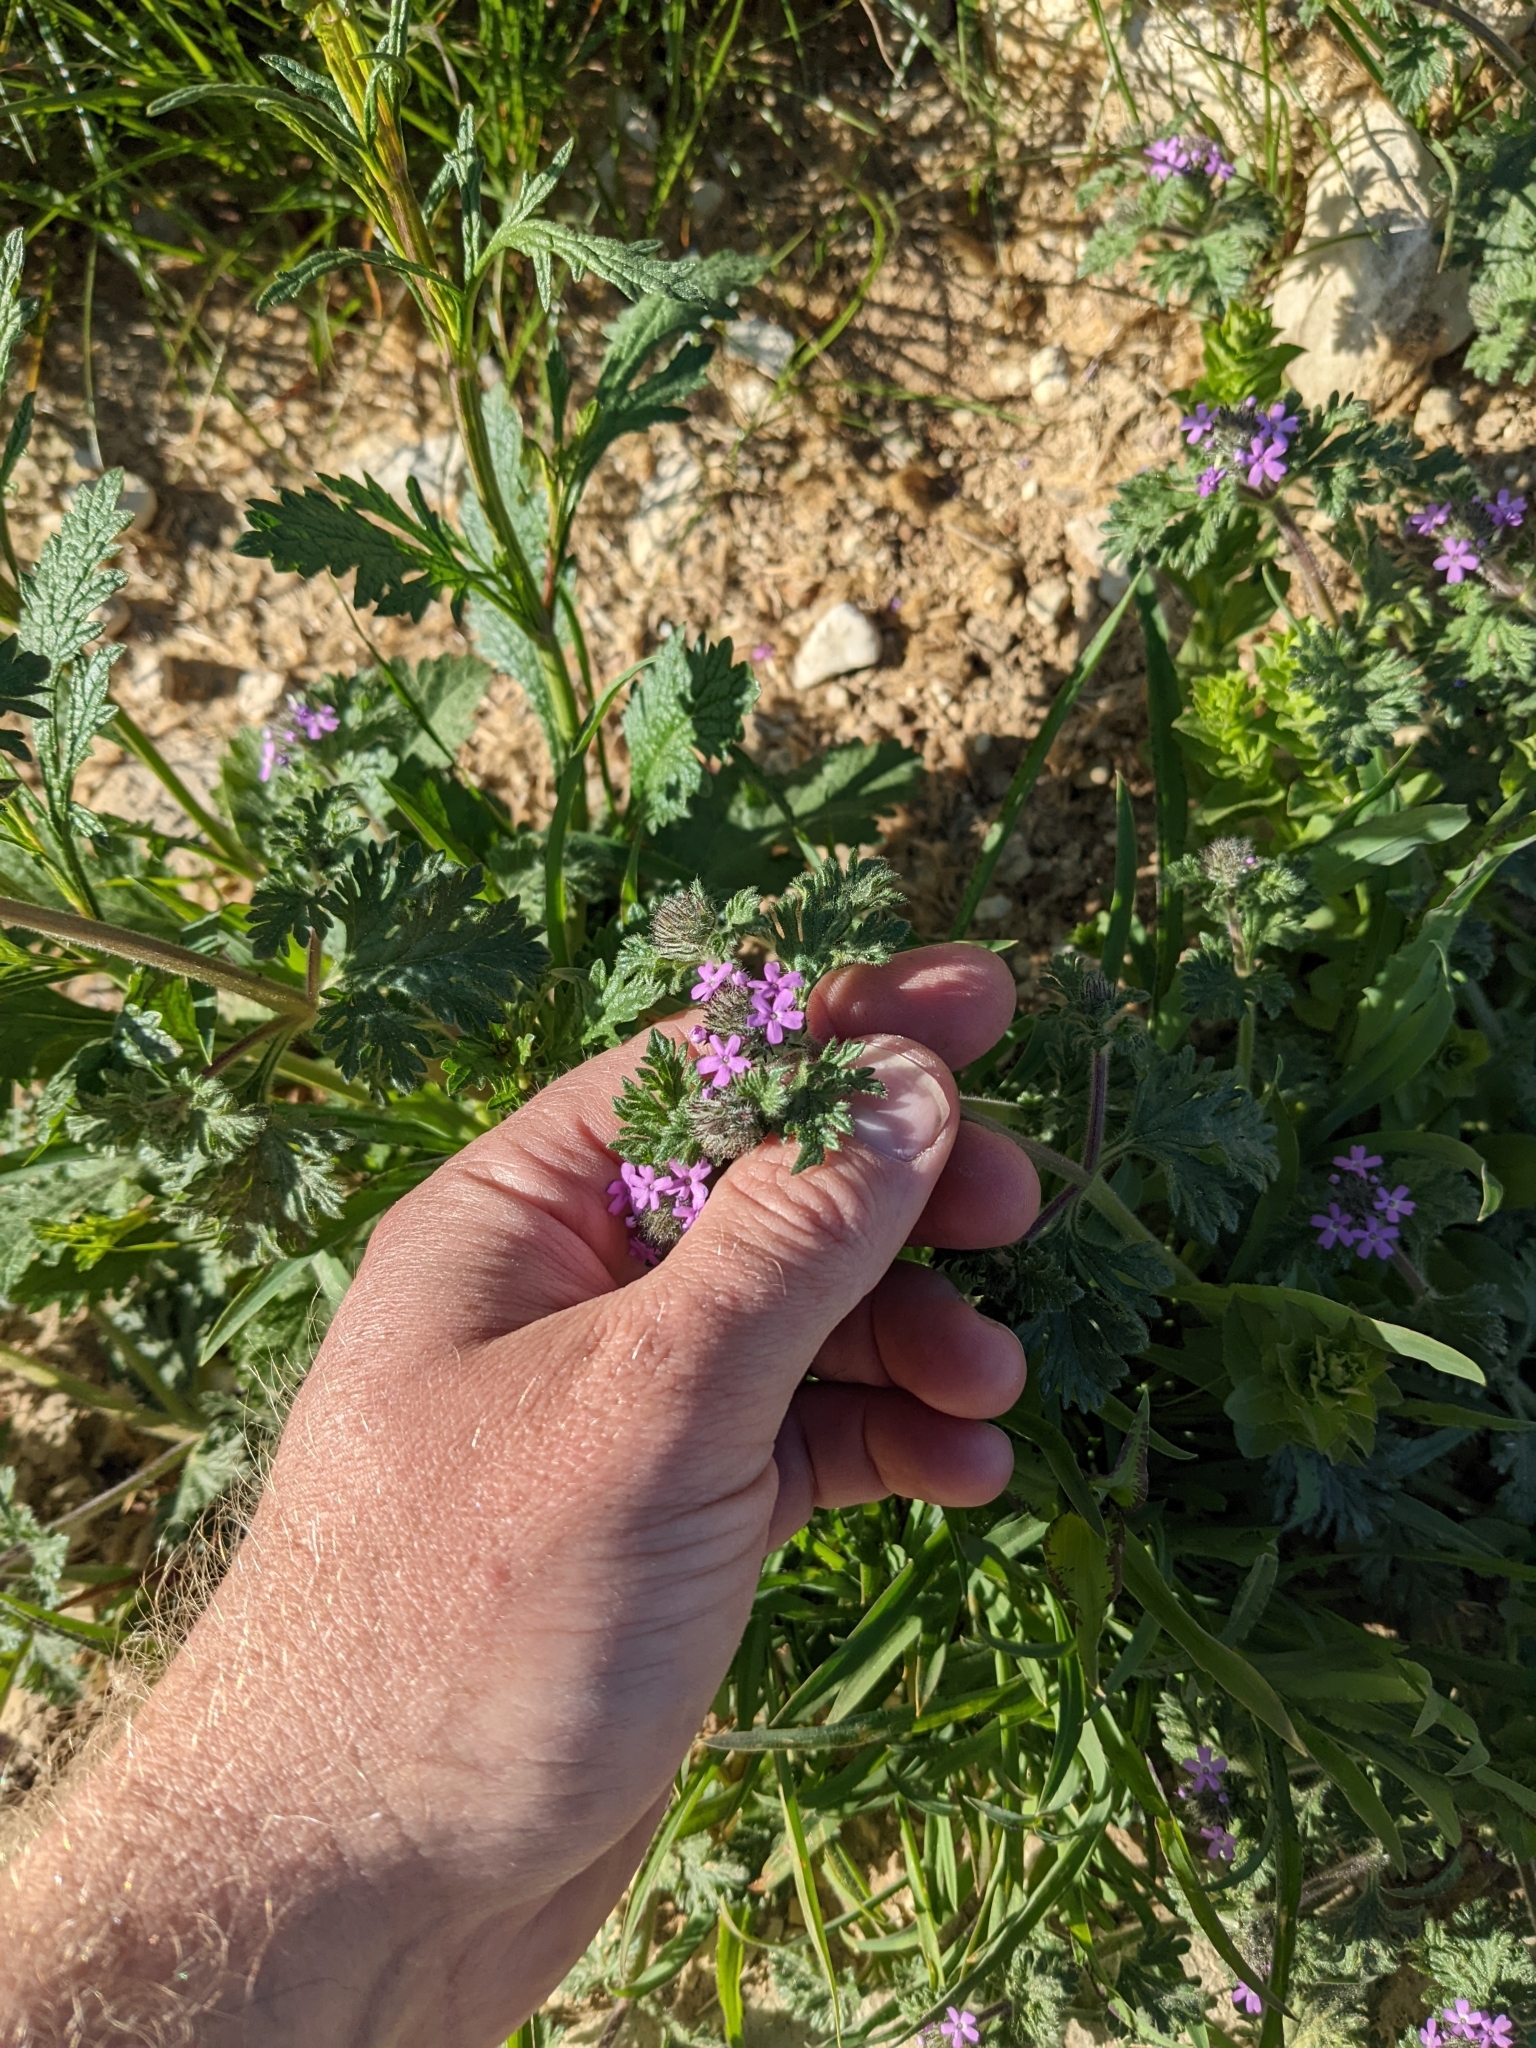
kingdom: Plantae
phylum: Tracheophyta
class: Magnoliopsida
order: Lamiales
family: Verbenaceae
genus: Verbena
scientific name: Verbena pumila
